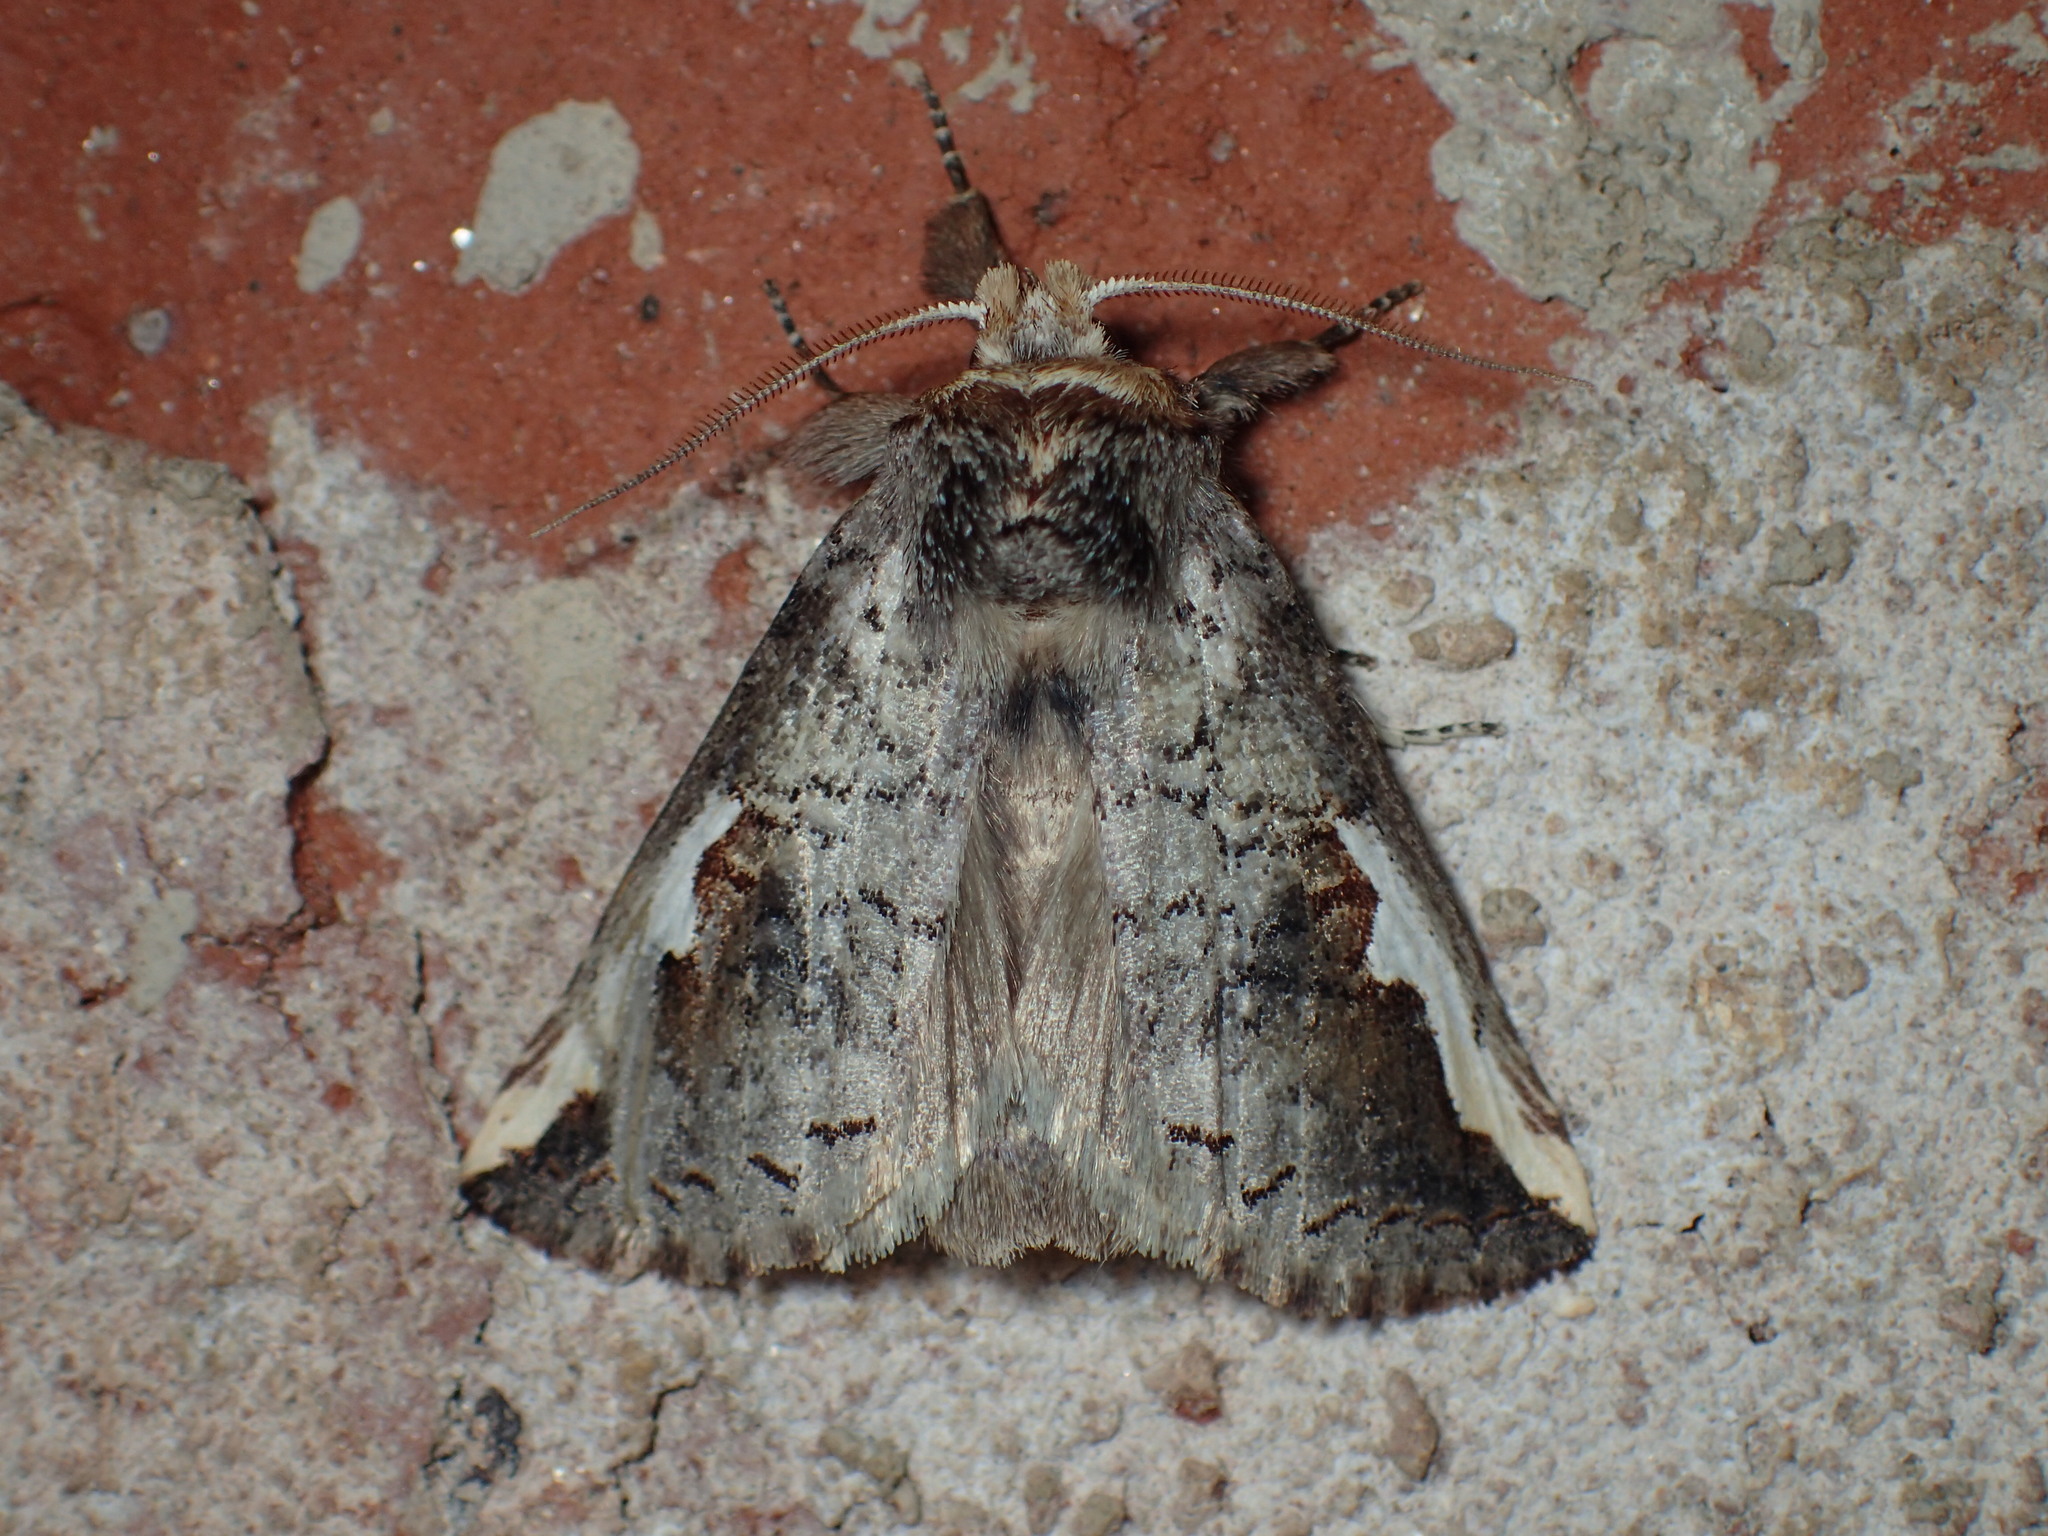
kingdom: Animalia
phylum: Arthropoda
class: Insecta
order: Lepidoptera
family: Notodontidae
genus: Symmerista
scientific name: Symmerista
